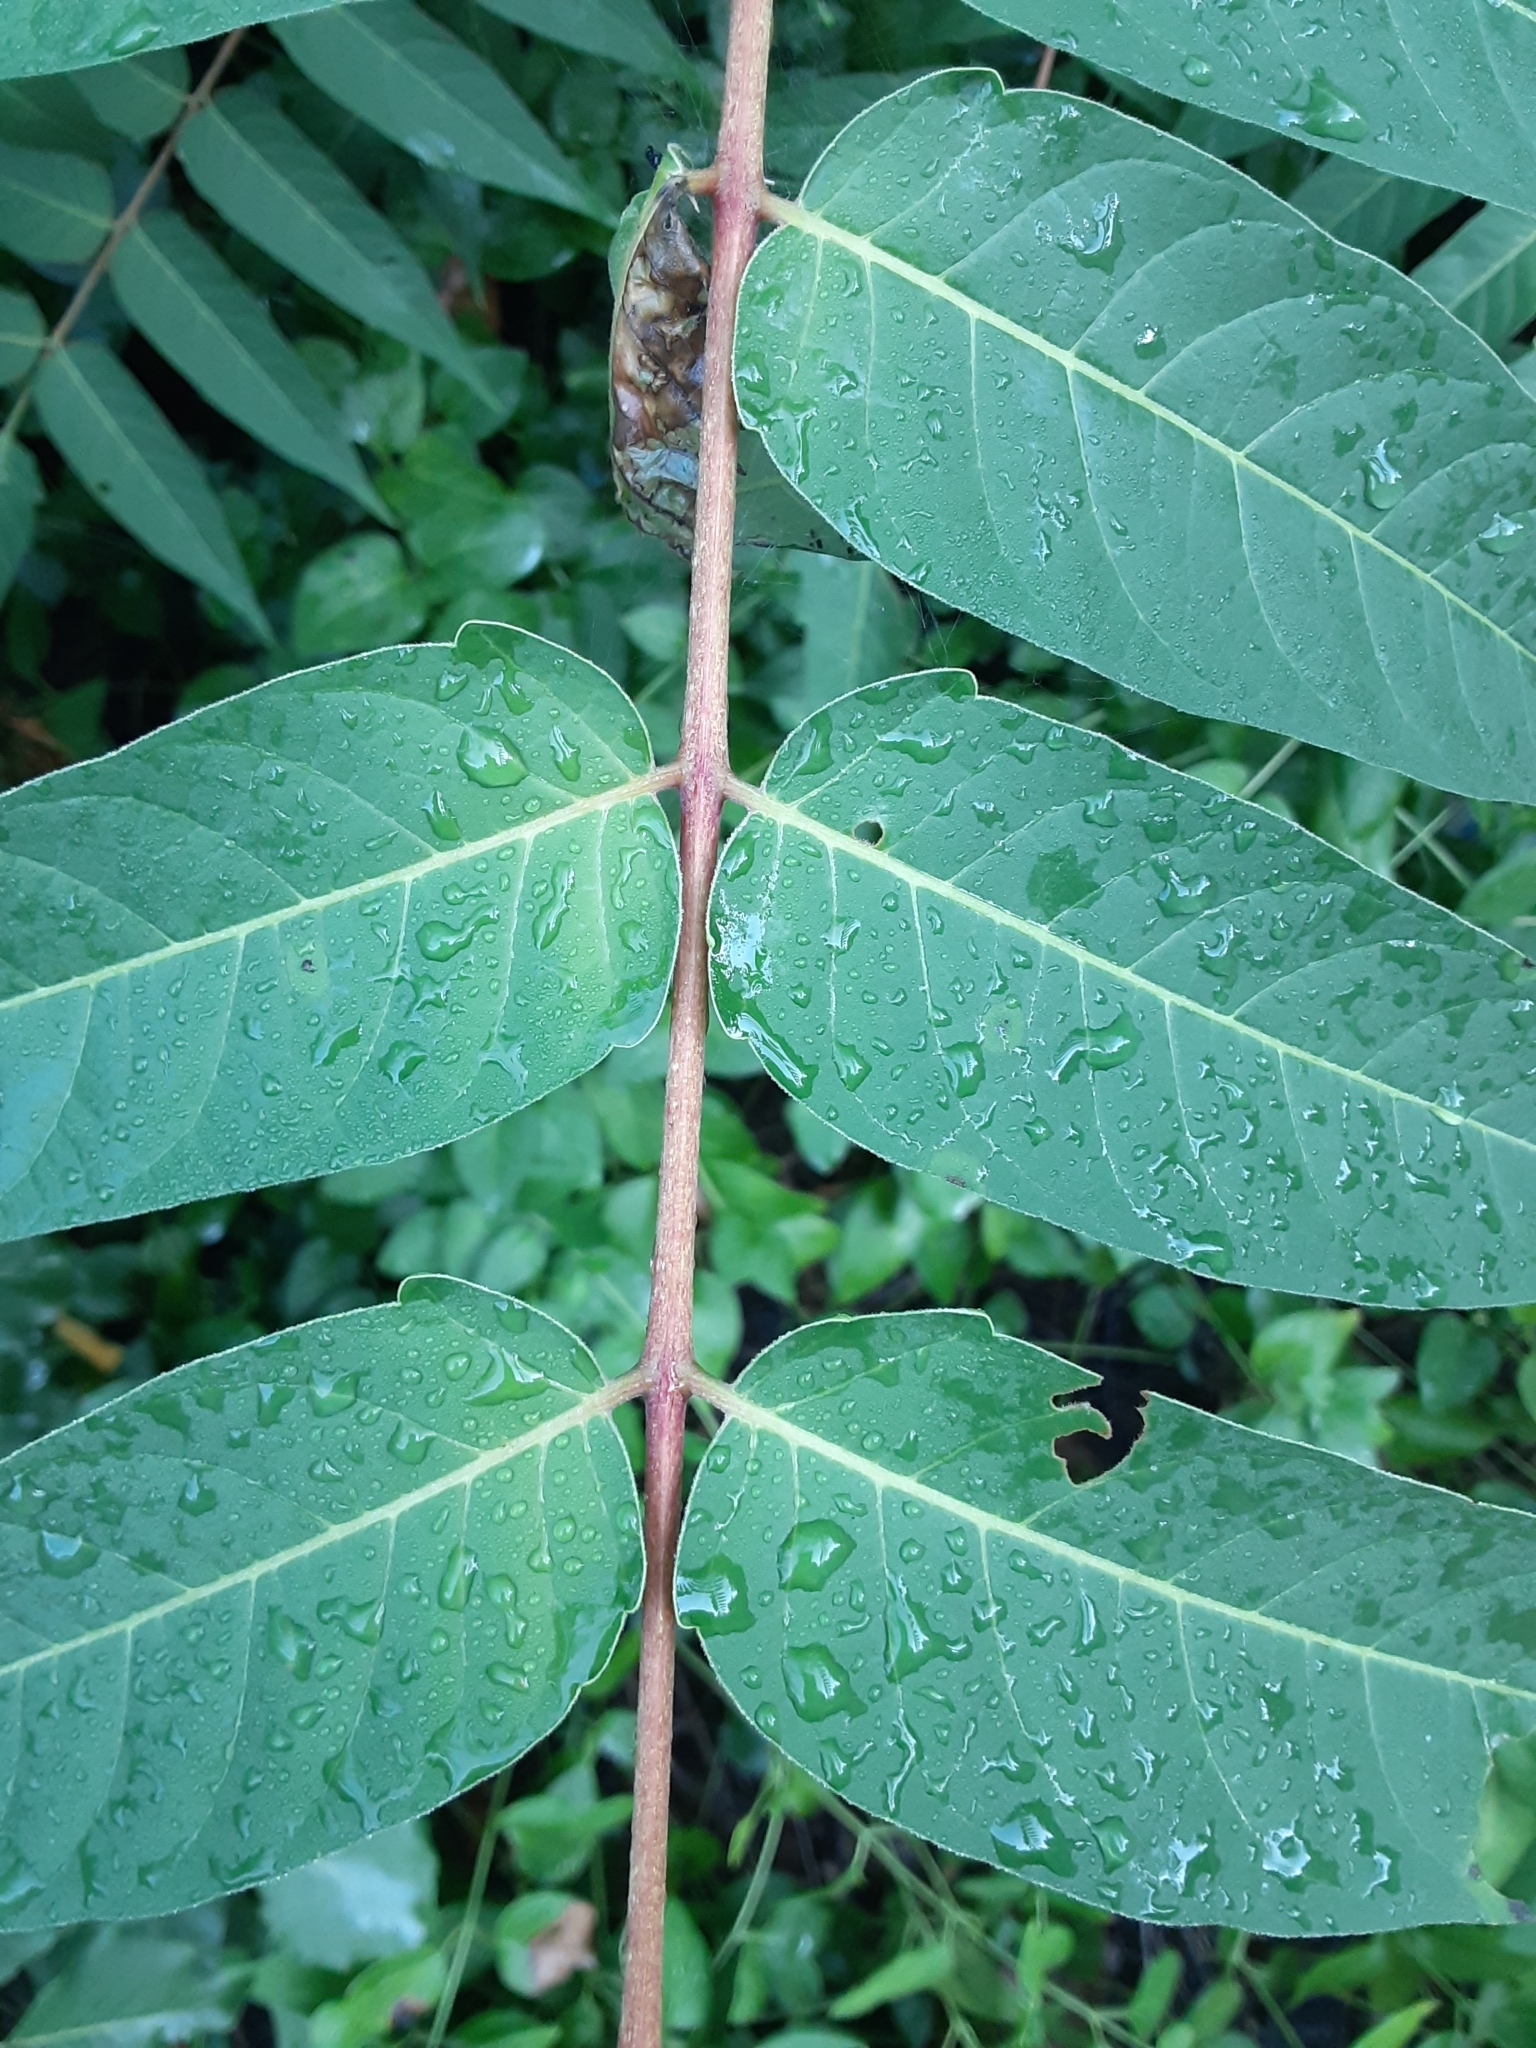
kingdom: Plantae
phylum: Tracheophyta
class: Magnoliopsida
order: Sapindales
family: Simaroubaceae
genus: Ailanthus
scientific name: Ailanthus altissima
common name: Tree-of-heaven
